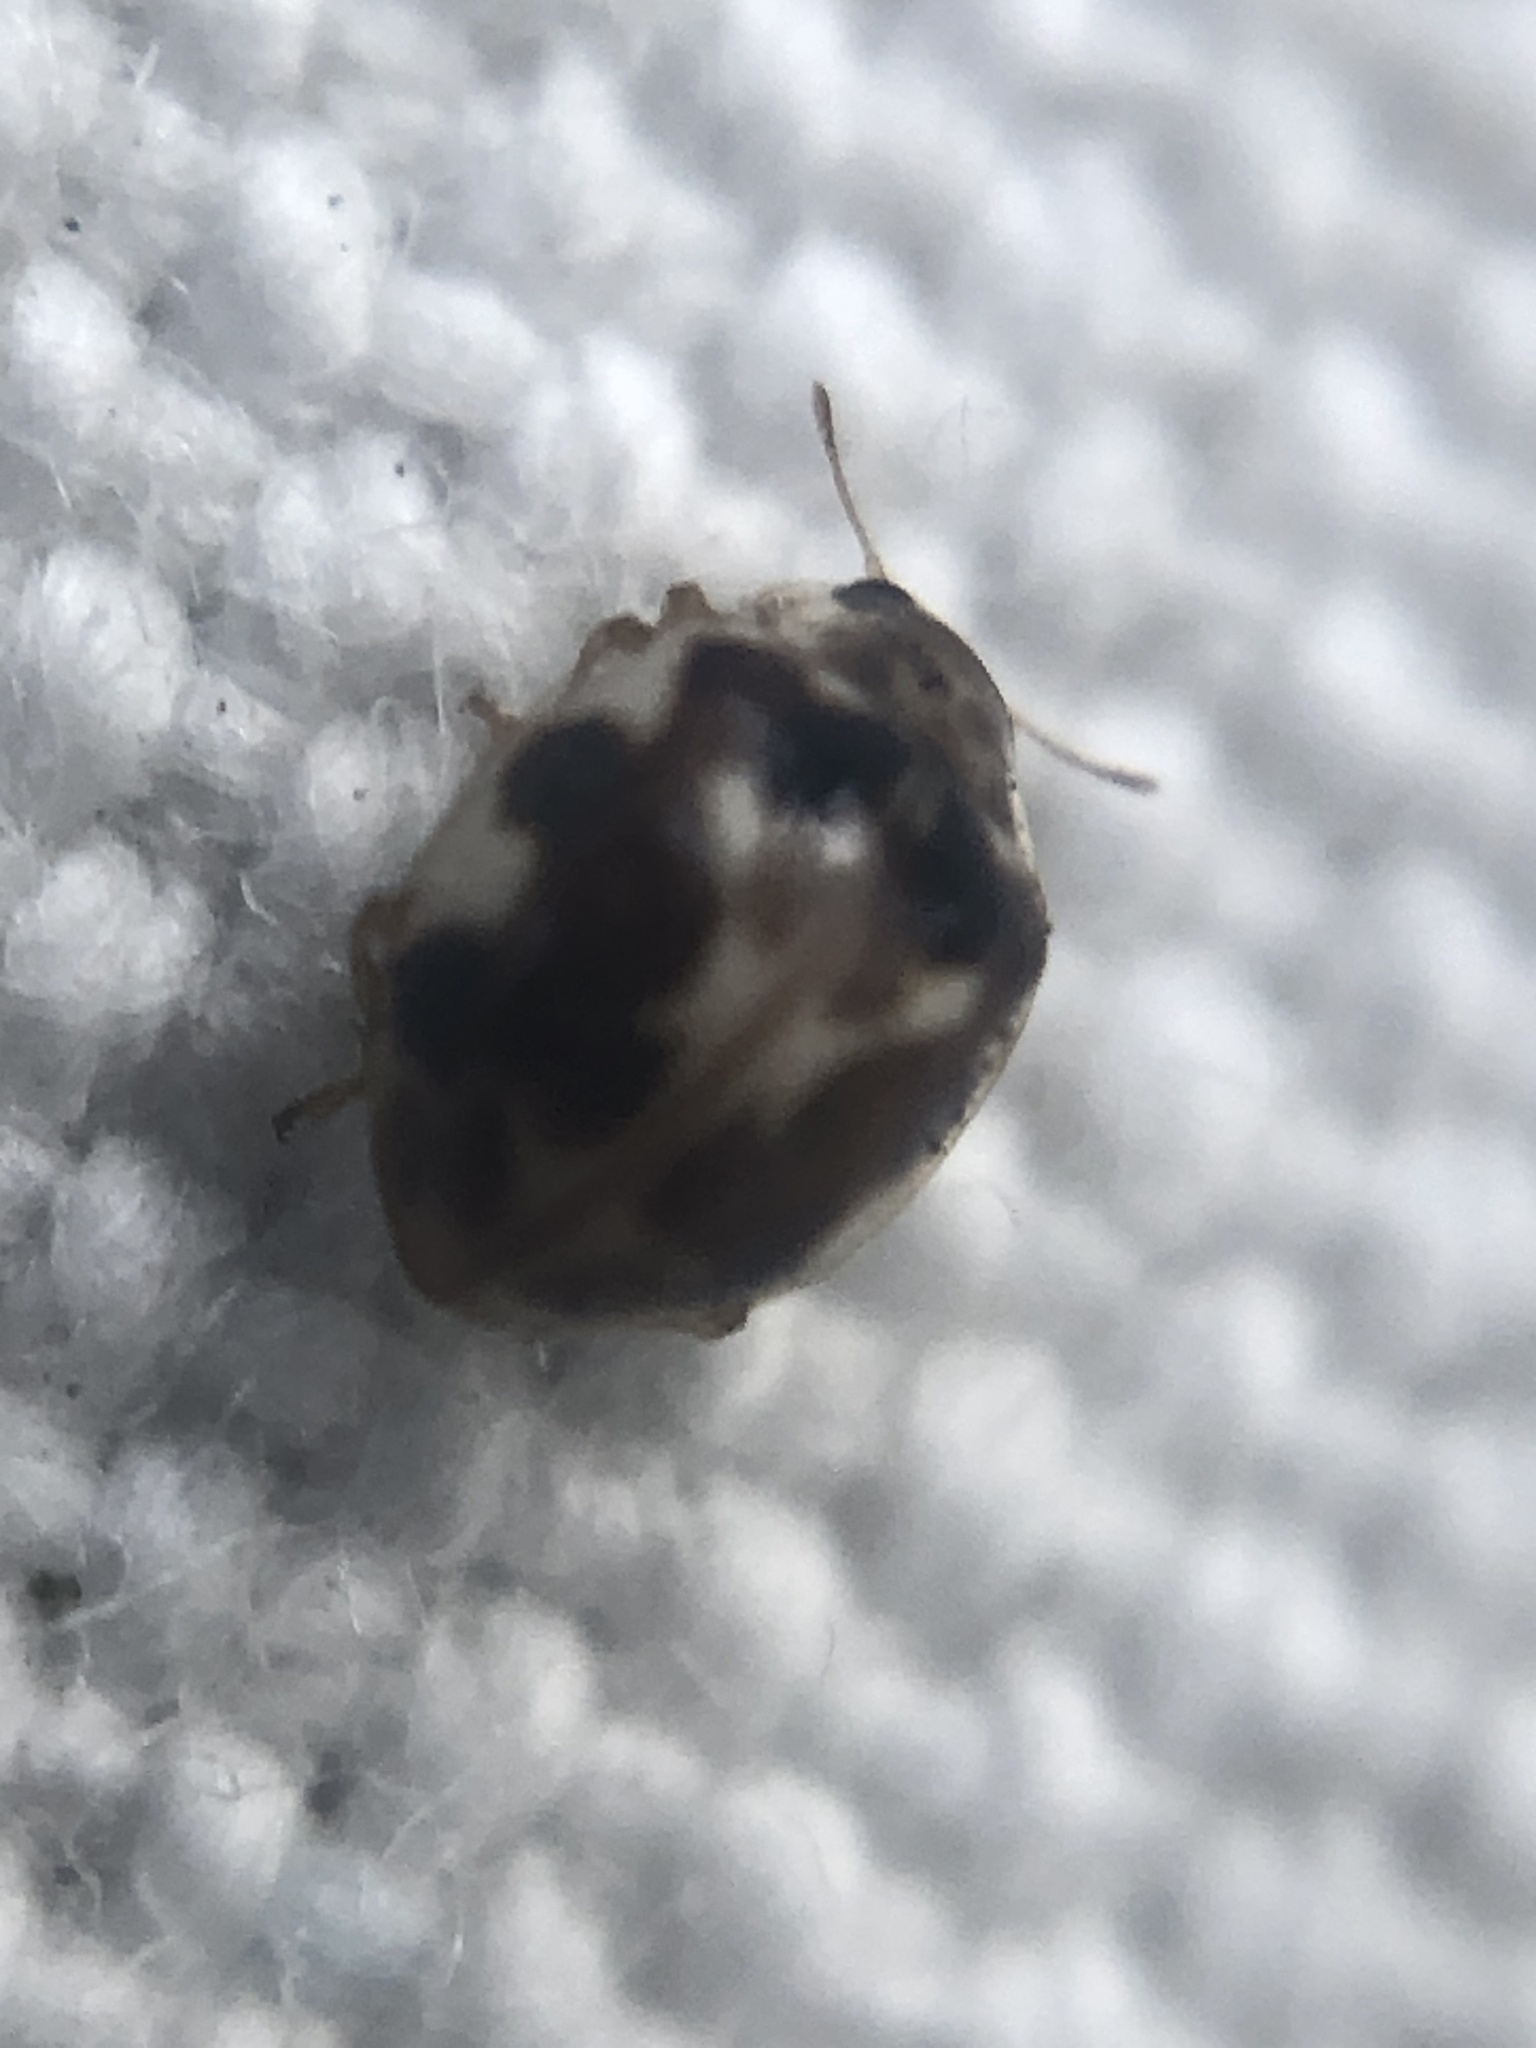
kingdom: Animalia
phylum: Arthropoda
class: Insecta
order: Coleoptera
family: Coccinellidae
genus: Psyllobora
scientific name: Psyllobora vigintimaculata
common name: Ladybird beetle
